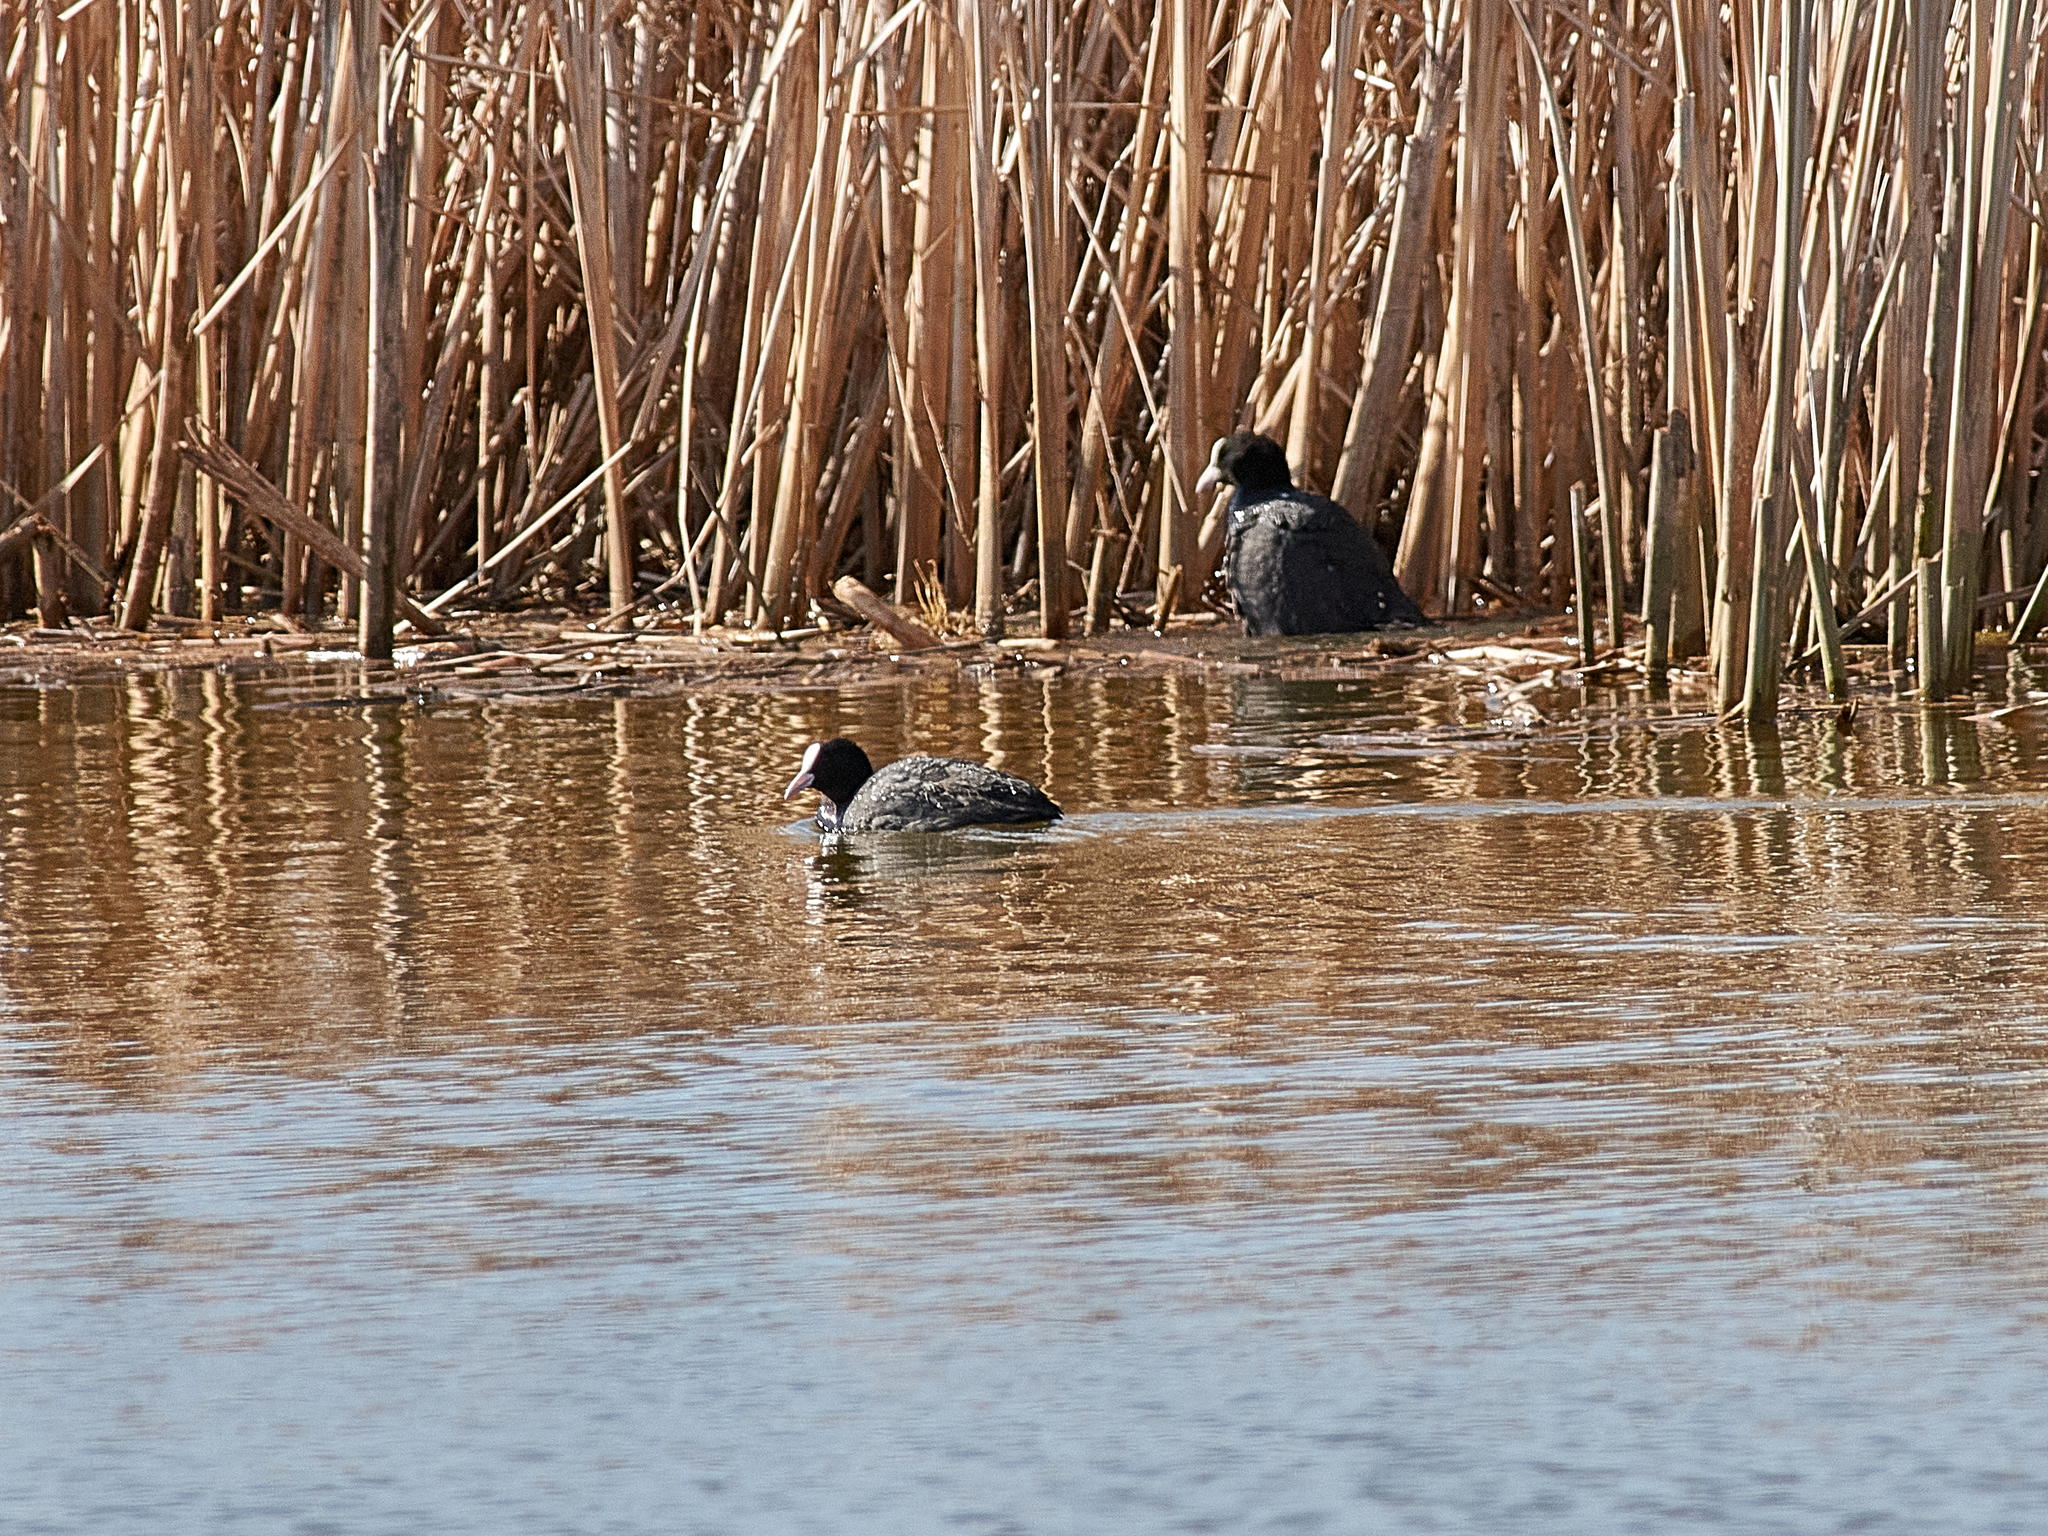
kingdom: Animalia
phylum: Chordata
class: Aves
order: Gruiformes
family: Rallidae
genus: Fulica
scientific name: Fulica atra
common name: Eurasian coot
